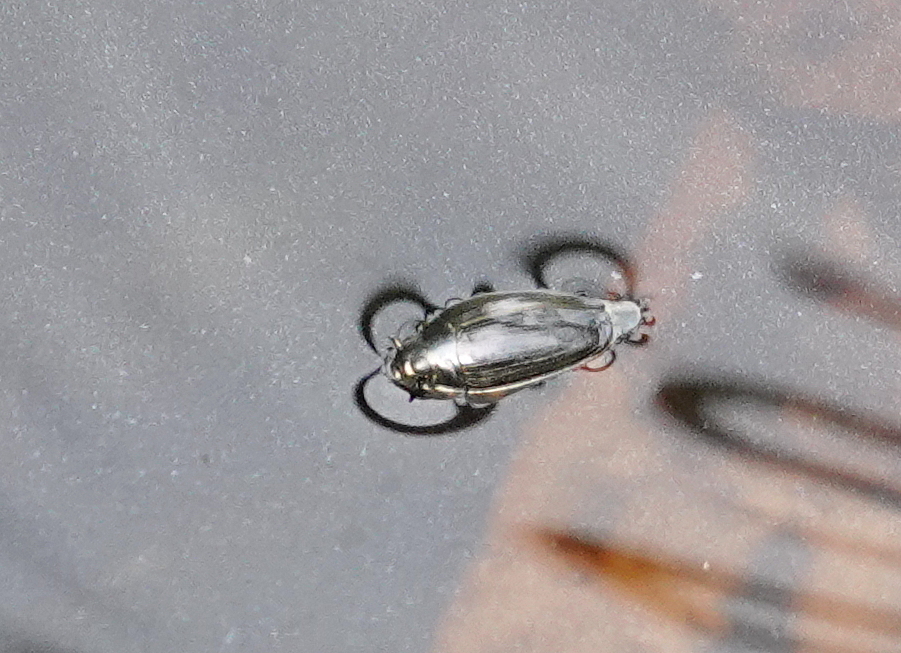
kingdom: Animalia
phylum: Arthropoda
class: Insecta
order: Coleoptera
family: Gyrinidae
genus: Gyrinus
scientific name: Gyrinus
